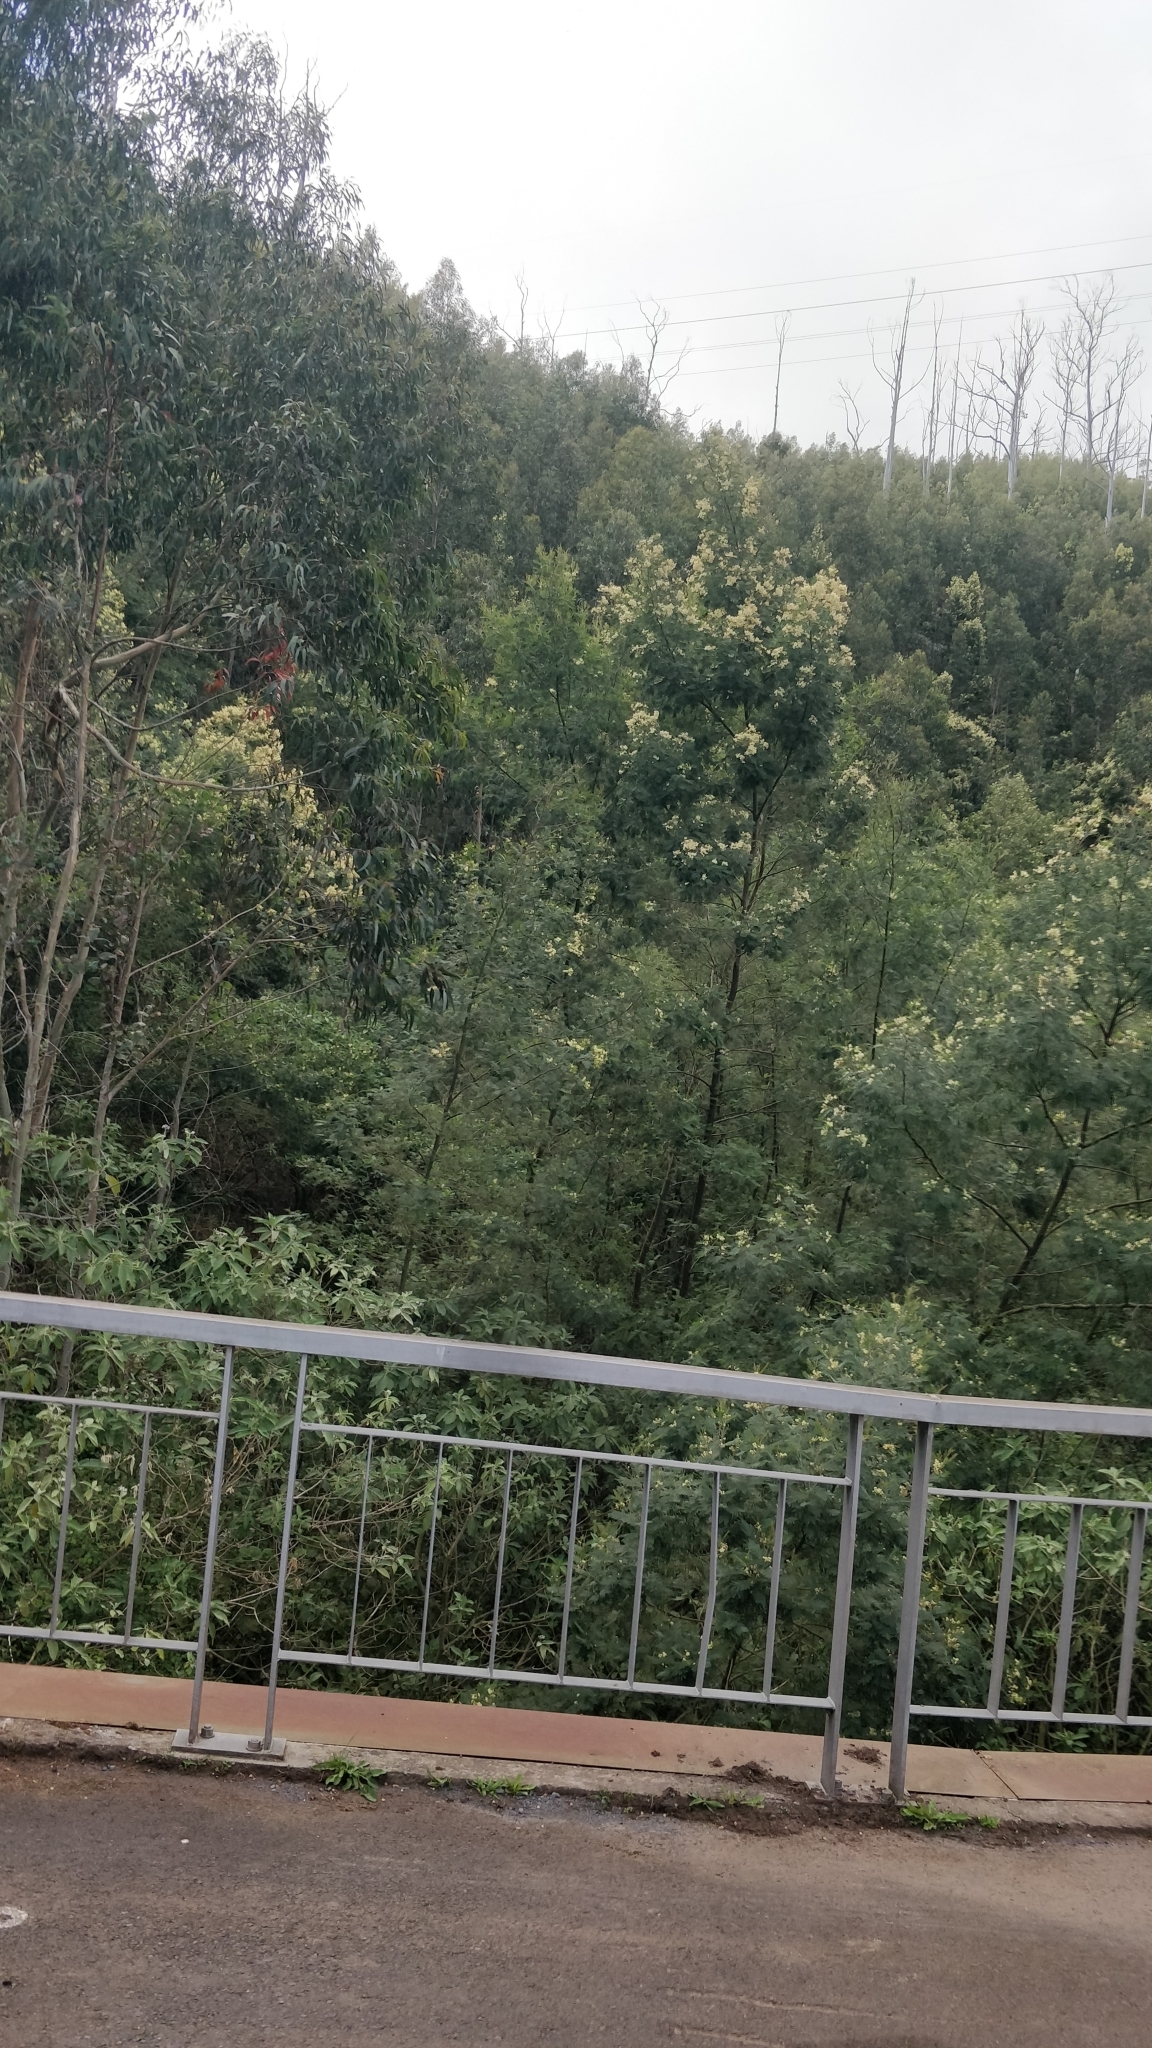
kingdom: Plantae
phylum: Tracheophyta
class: Magnoliopsida
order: Fabales
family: Fabaceae
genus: Acacia
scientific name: Acacia mearnsii
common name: Black wattle
